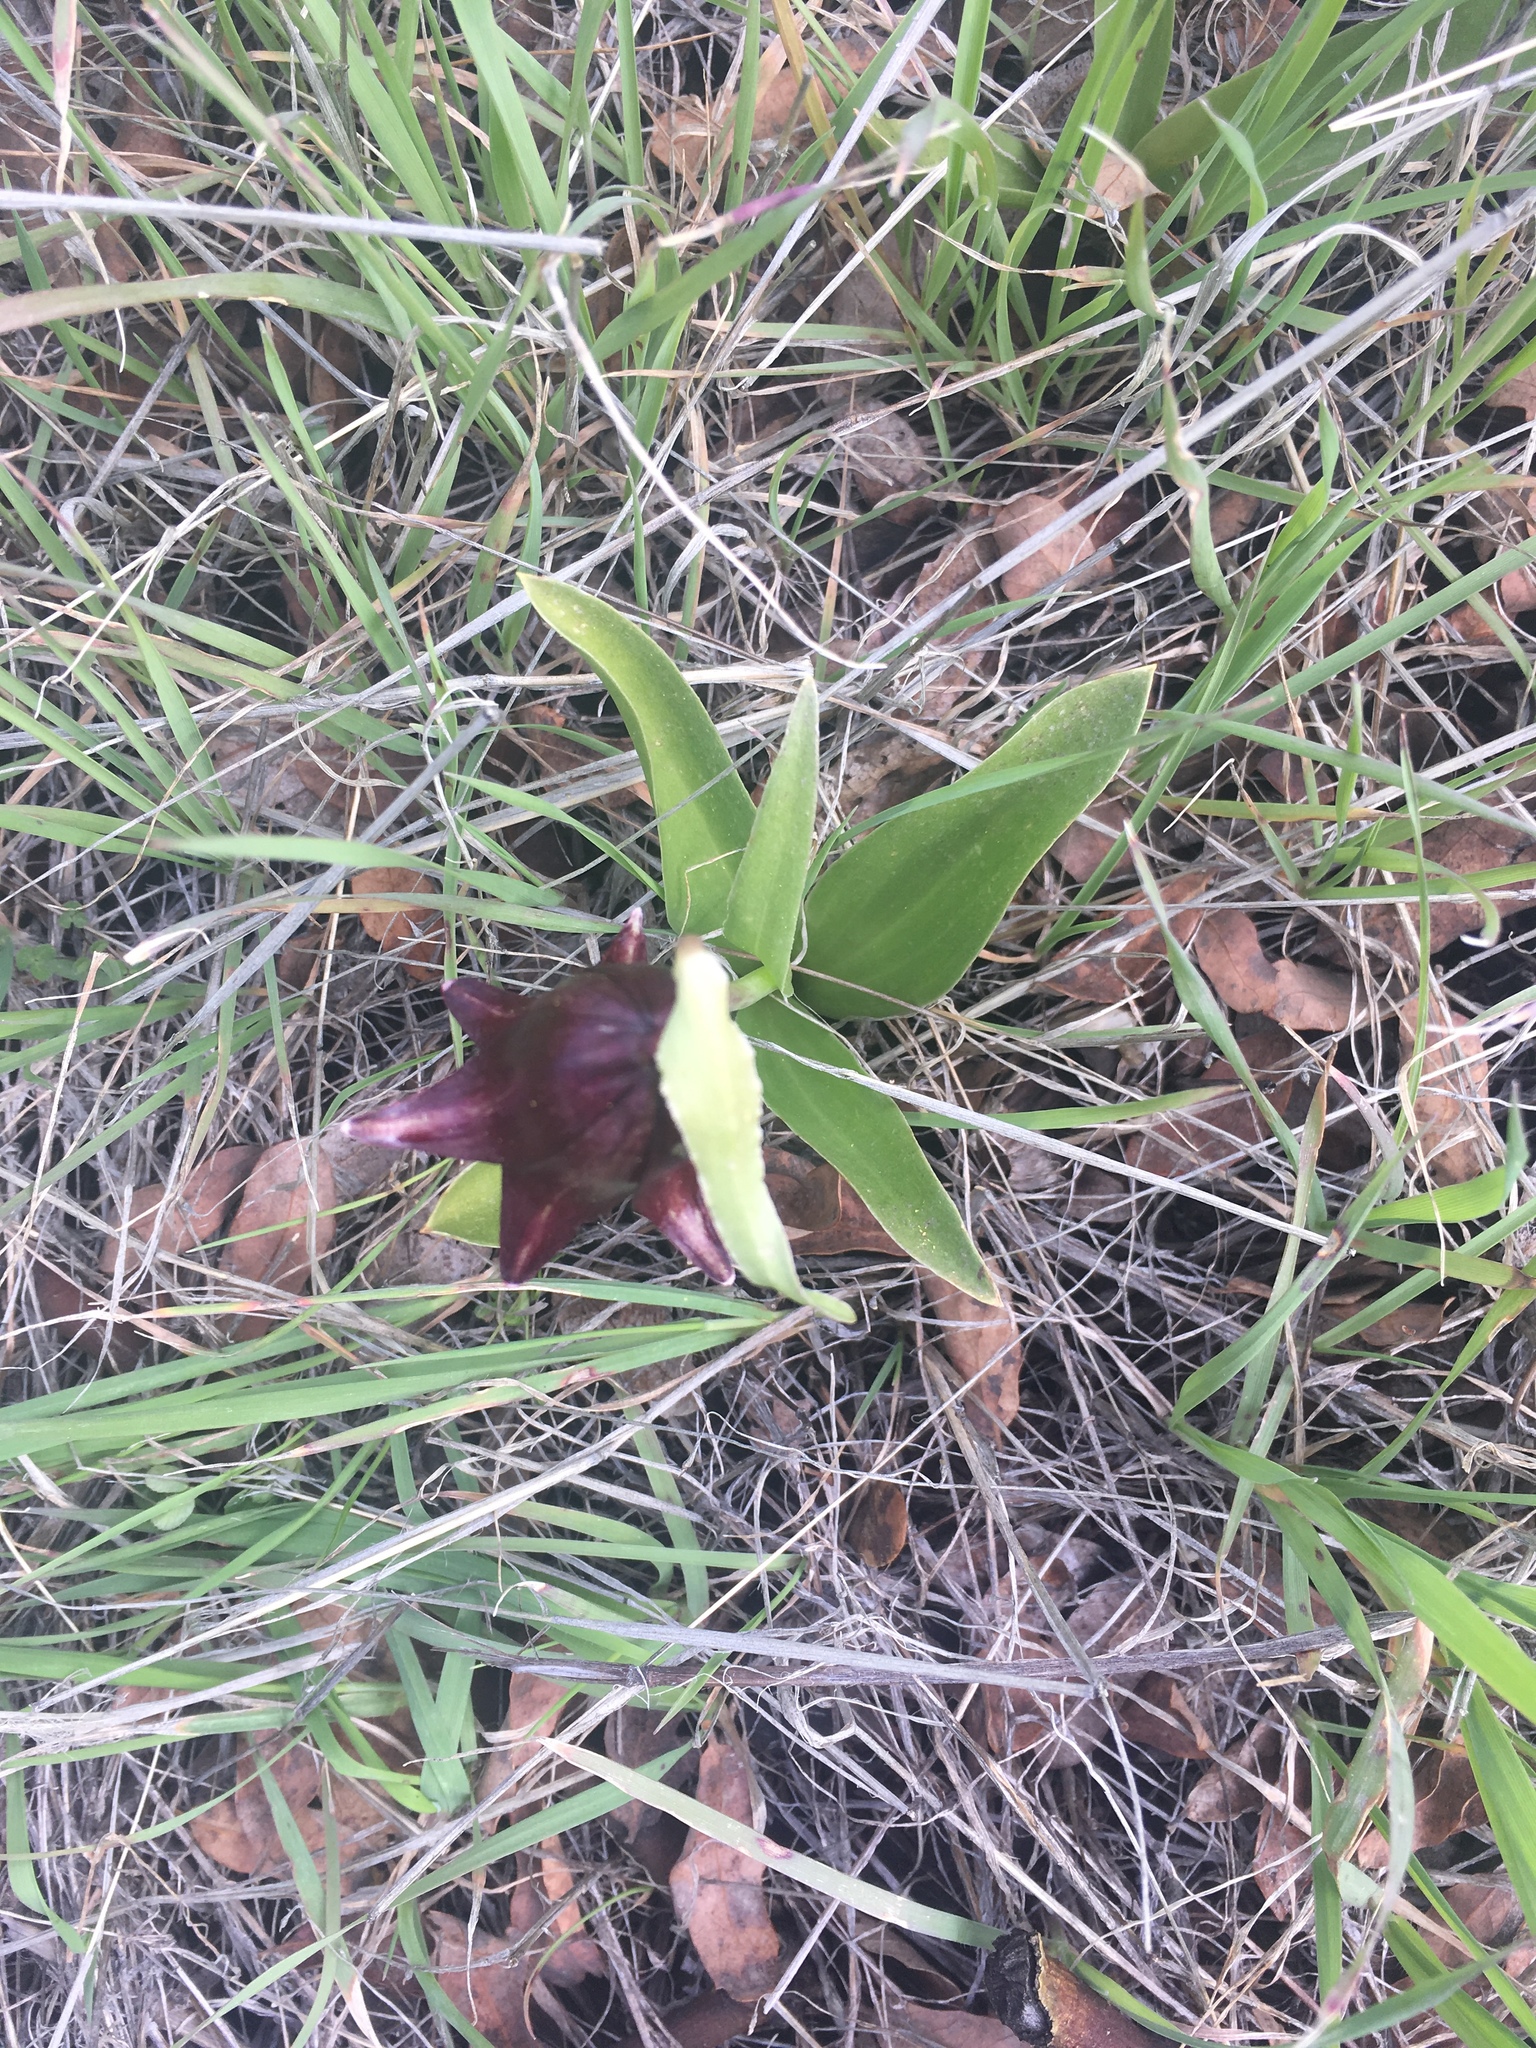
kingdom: Plantae
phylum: Tracheophyta
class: Liliopsida
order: Liliales
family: Liliaceae
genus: Fritillaria
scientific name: Fritillaria biflora
